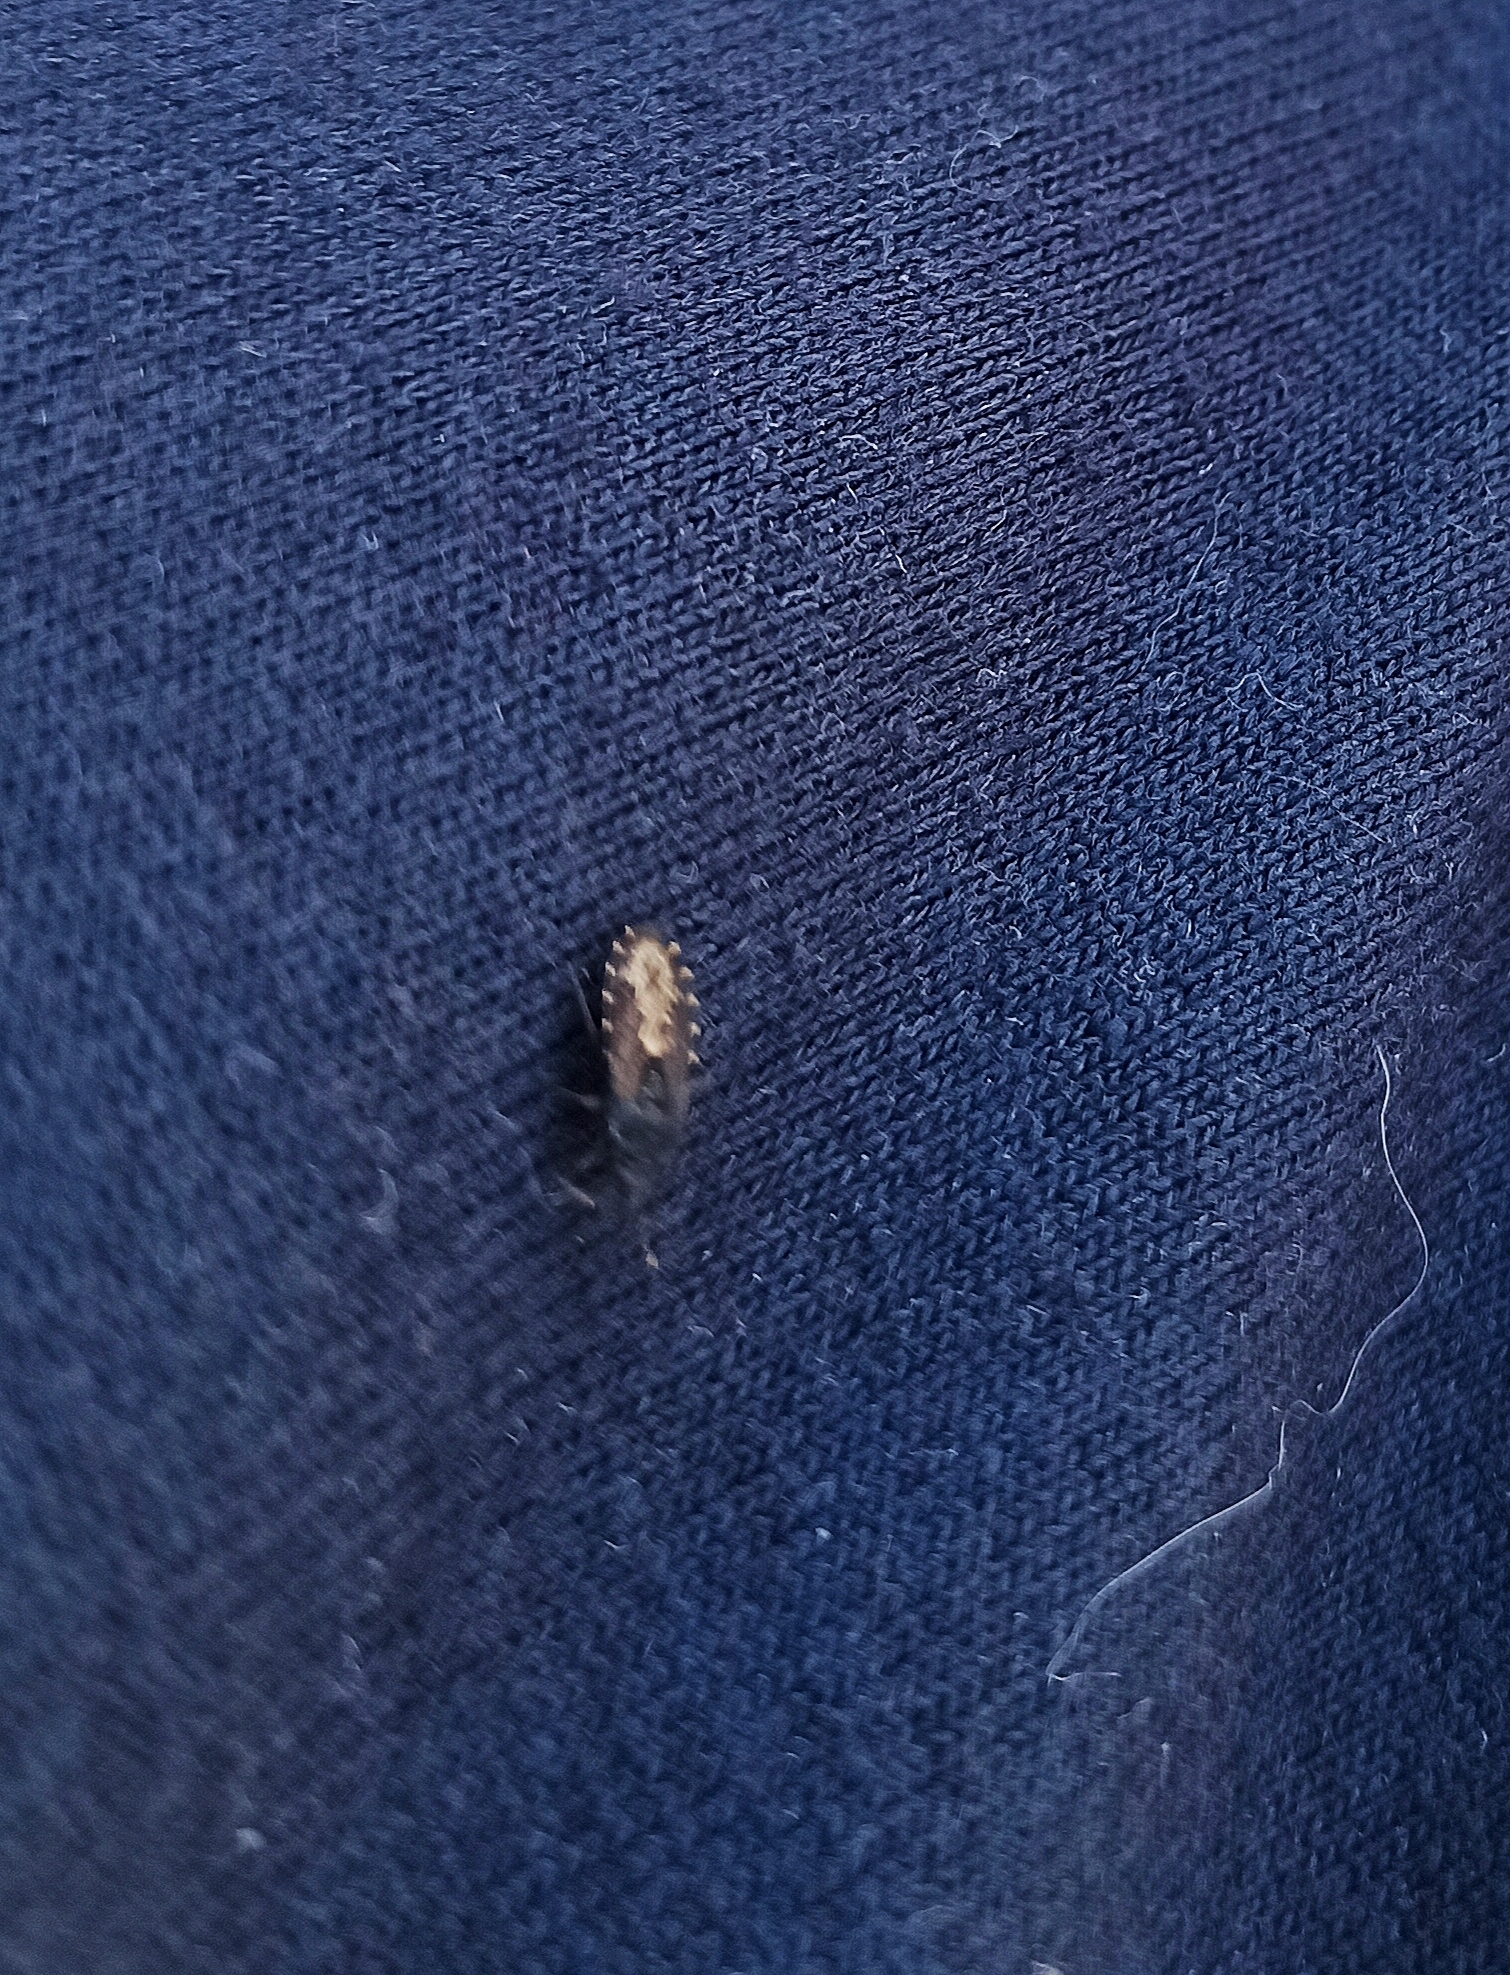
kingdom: Animalia
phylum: Arthropoda
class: Insecta
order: Hemiptera
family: Lygaeidae
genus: Kleidocerys
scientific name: Kleidocerys resedae
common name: Birch catkin bug
